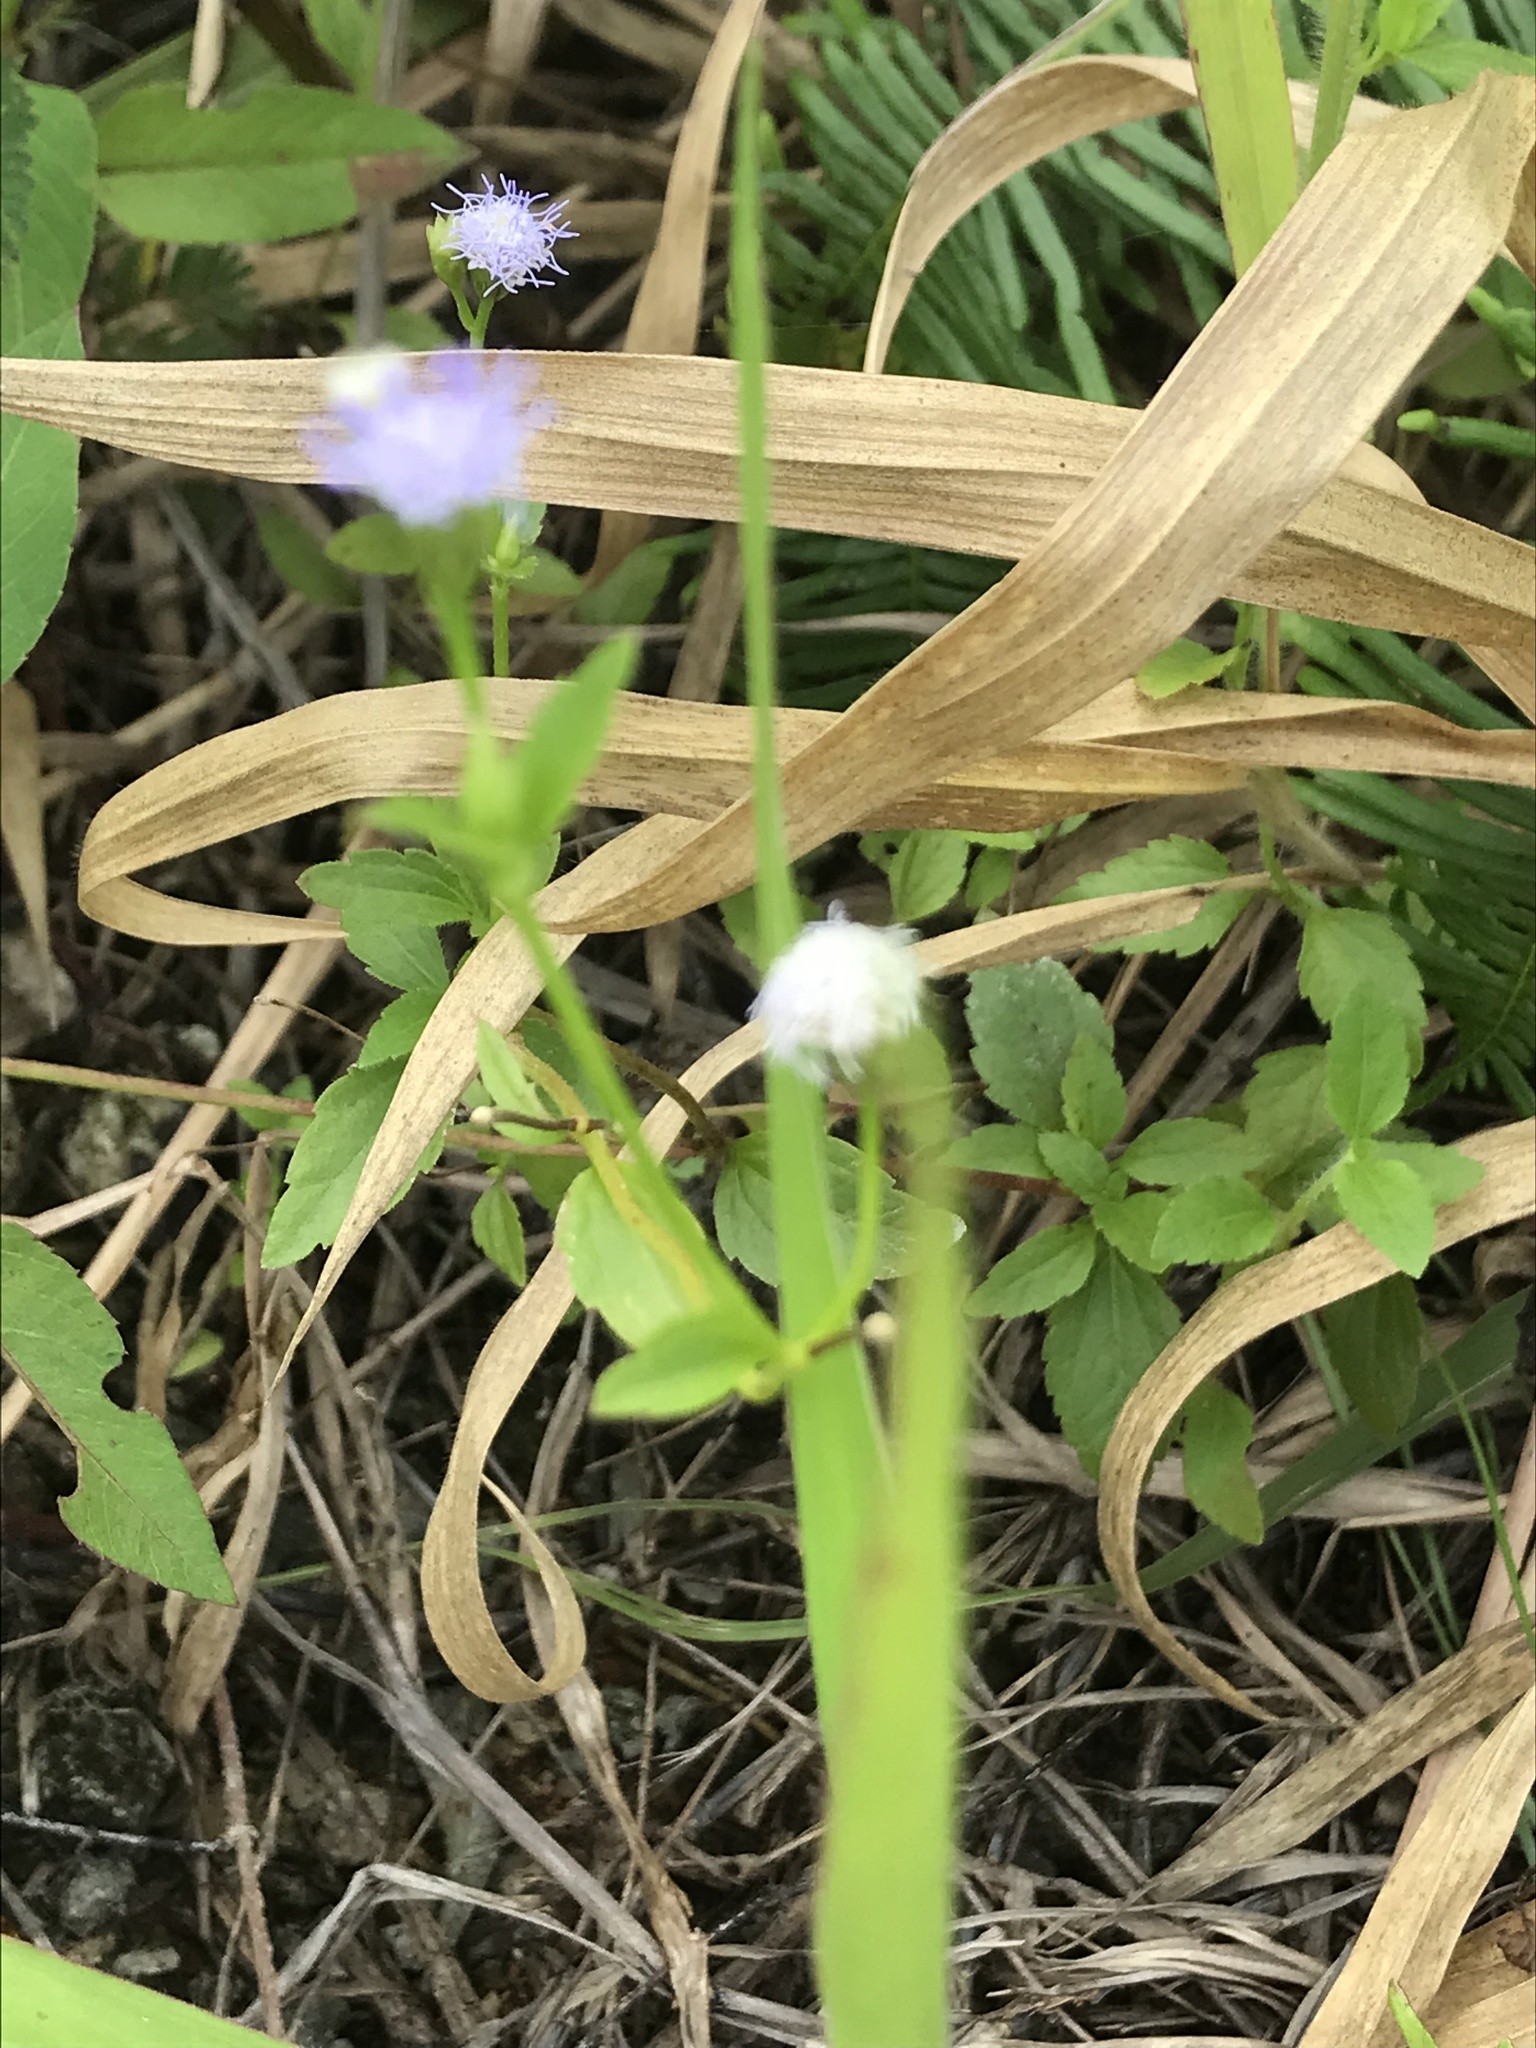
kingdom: Plantae
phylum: Tracheophyta
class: Magnoliopsida
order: Asterales
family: Asteraceae
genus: Praxelis
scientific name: Praxelis clematidea
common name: Praxelis
